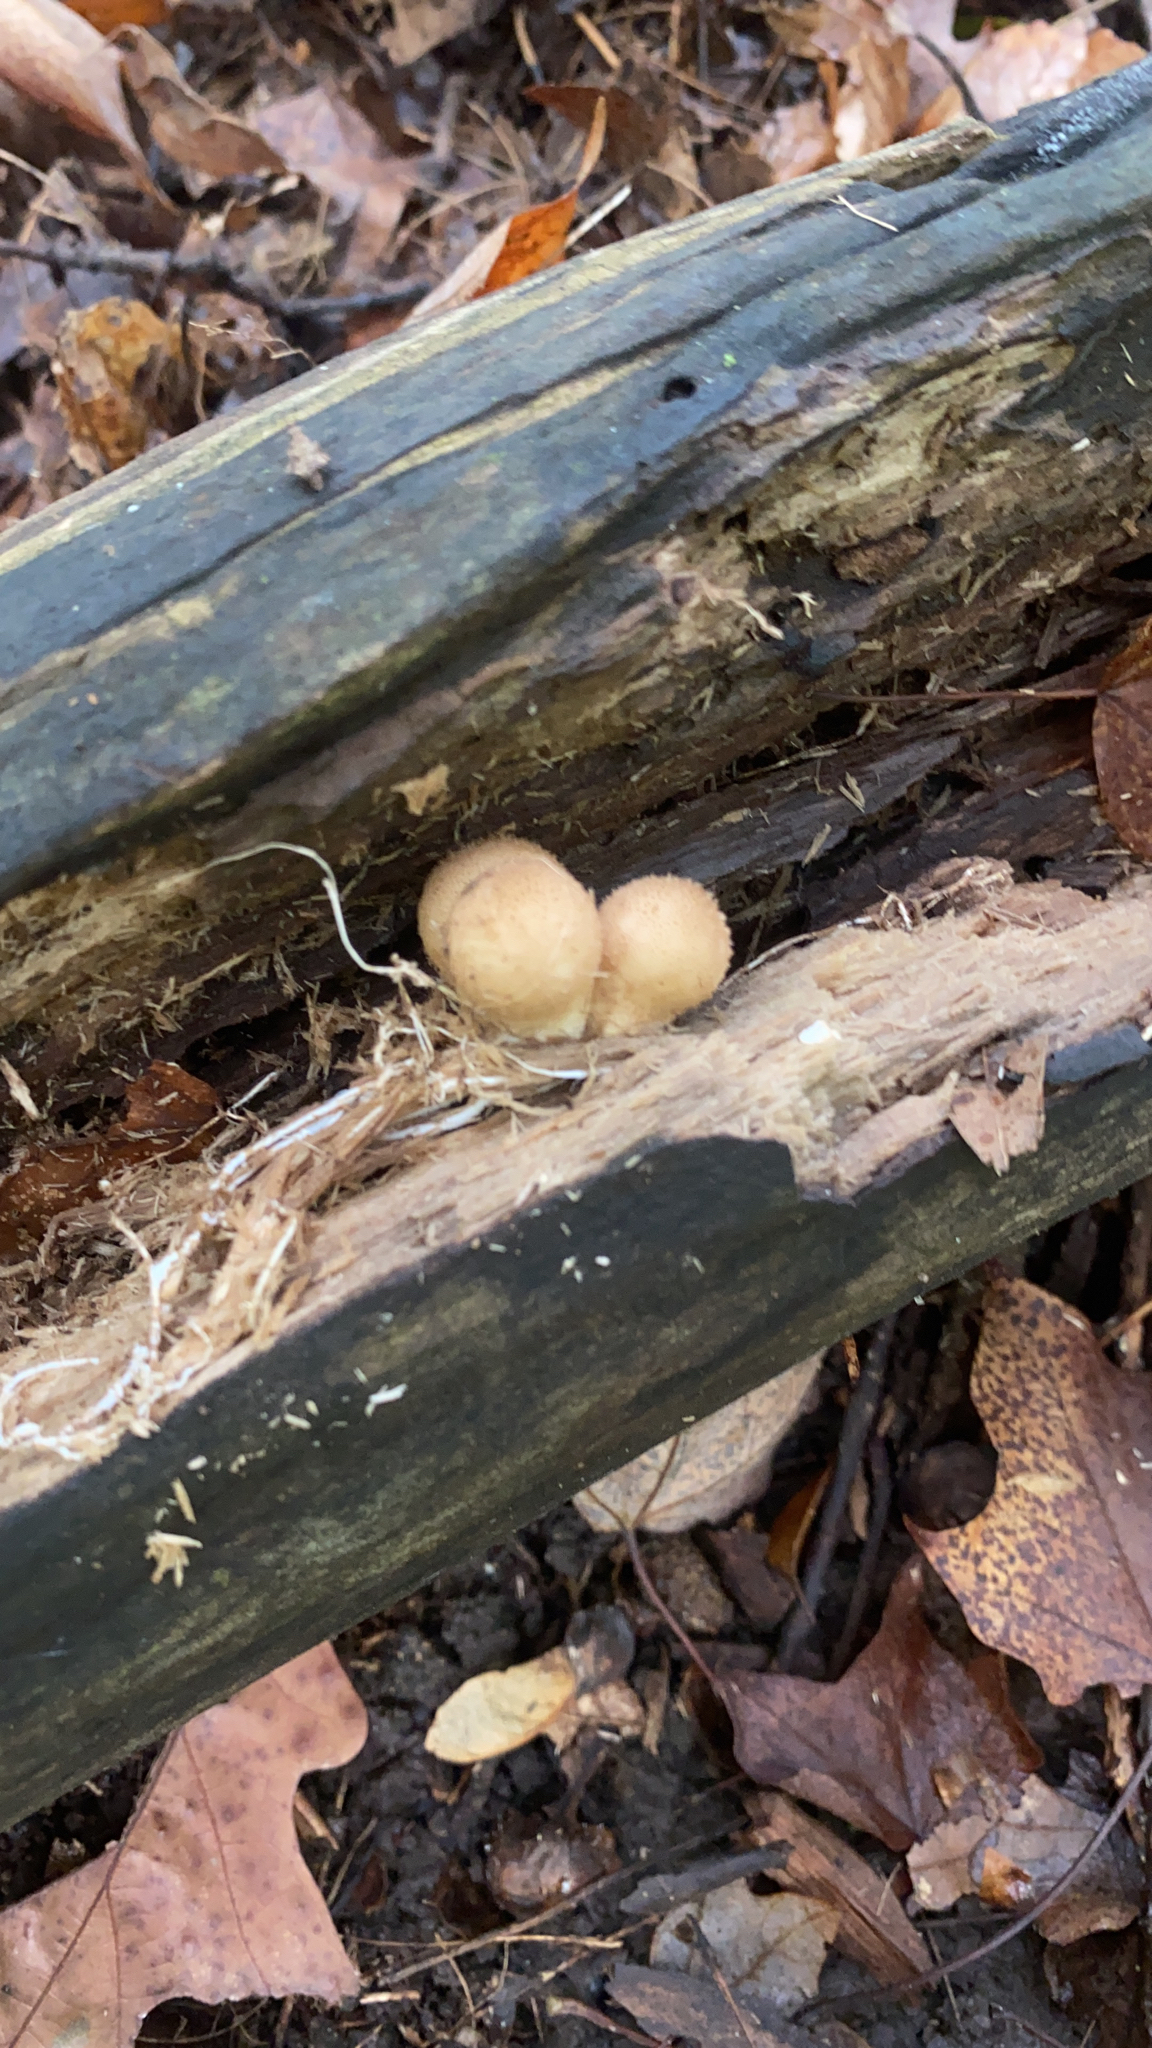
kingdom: Fungi
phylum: Basidiomycota
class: Agaricomycetes
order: Agaricales
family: Lycoperdaceae
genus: Apioperdon
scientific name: Apioperdon pyriforme
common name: Pear-shaped puffball
